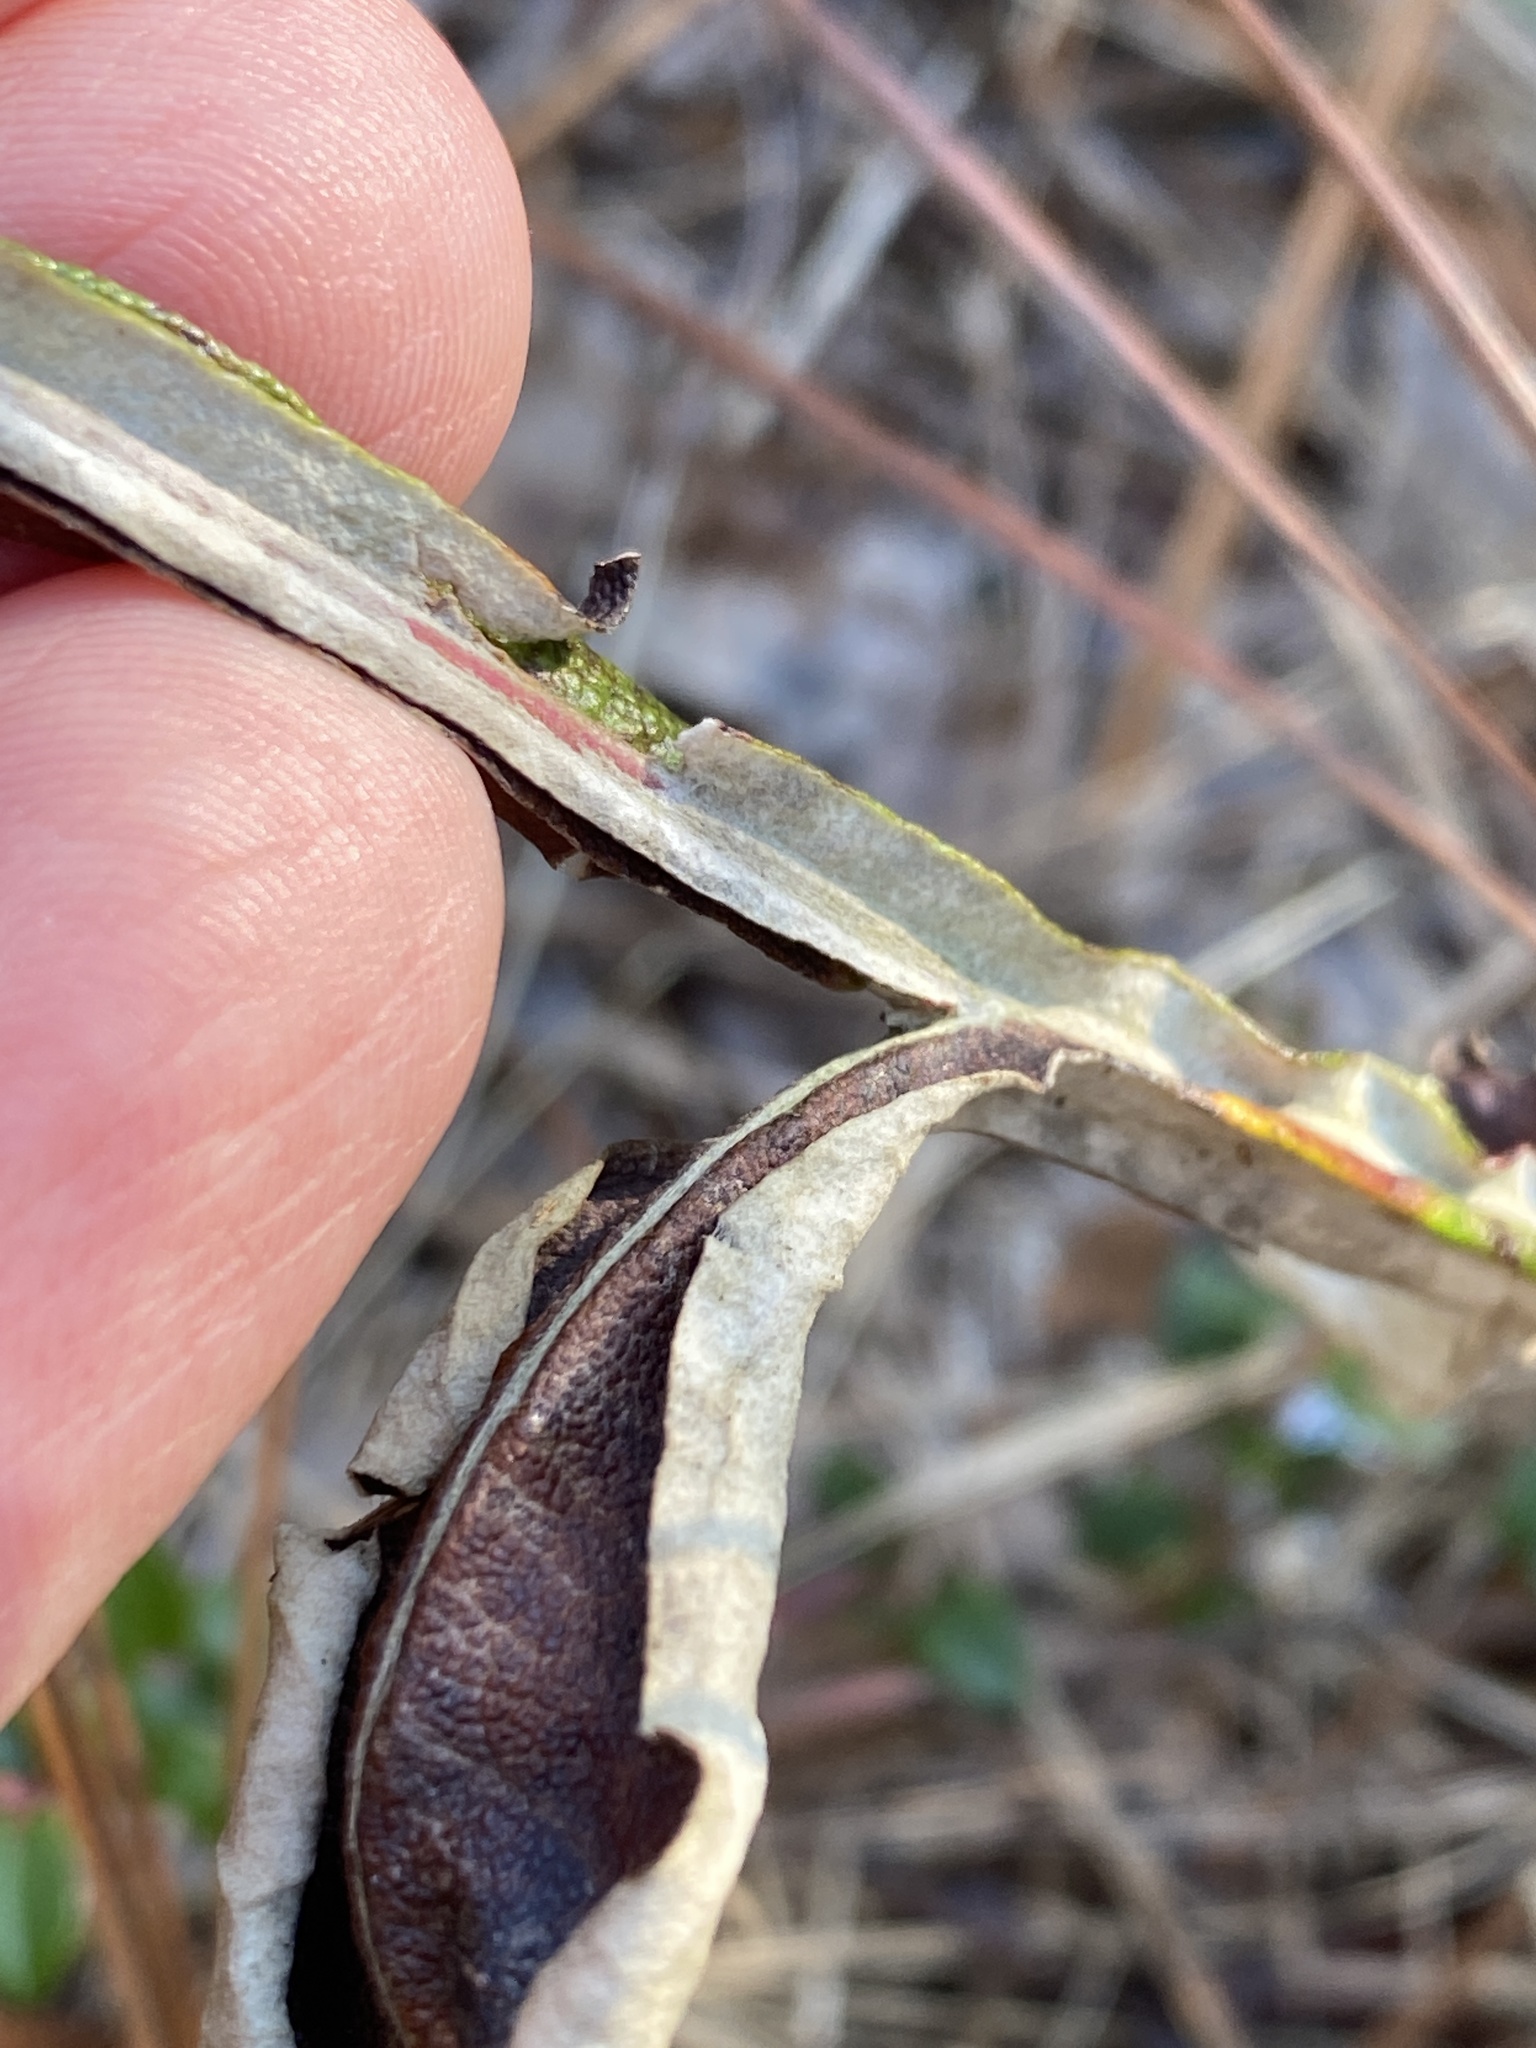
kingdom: Plantae
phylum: Tracheophyta
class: Magnoliopsida
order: Asterales
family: Asteraceae
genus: Pterocaulon
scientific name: Pterocaulon pycnostachyum
